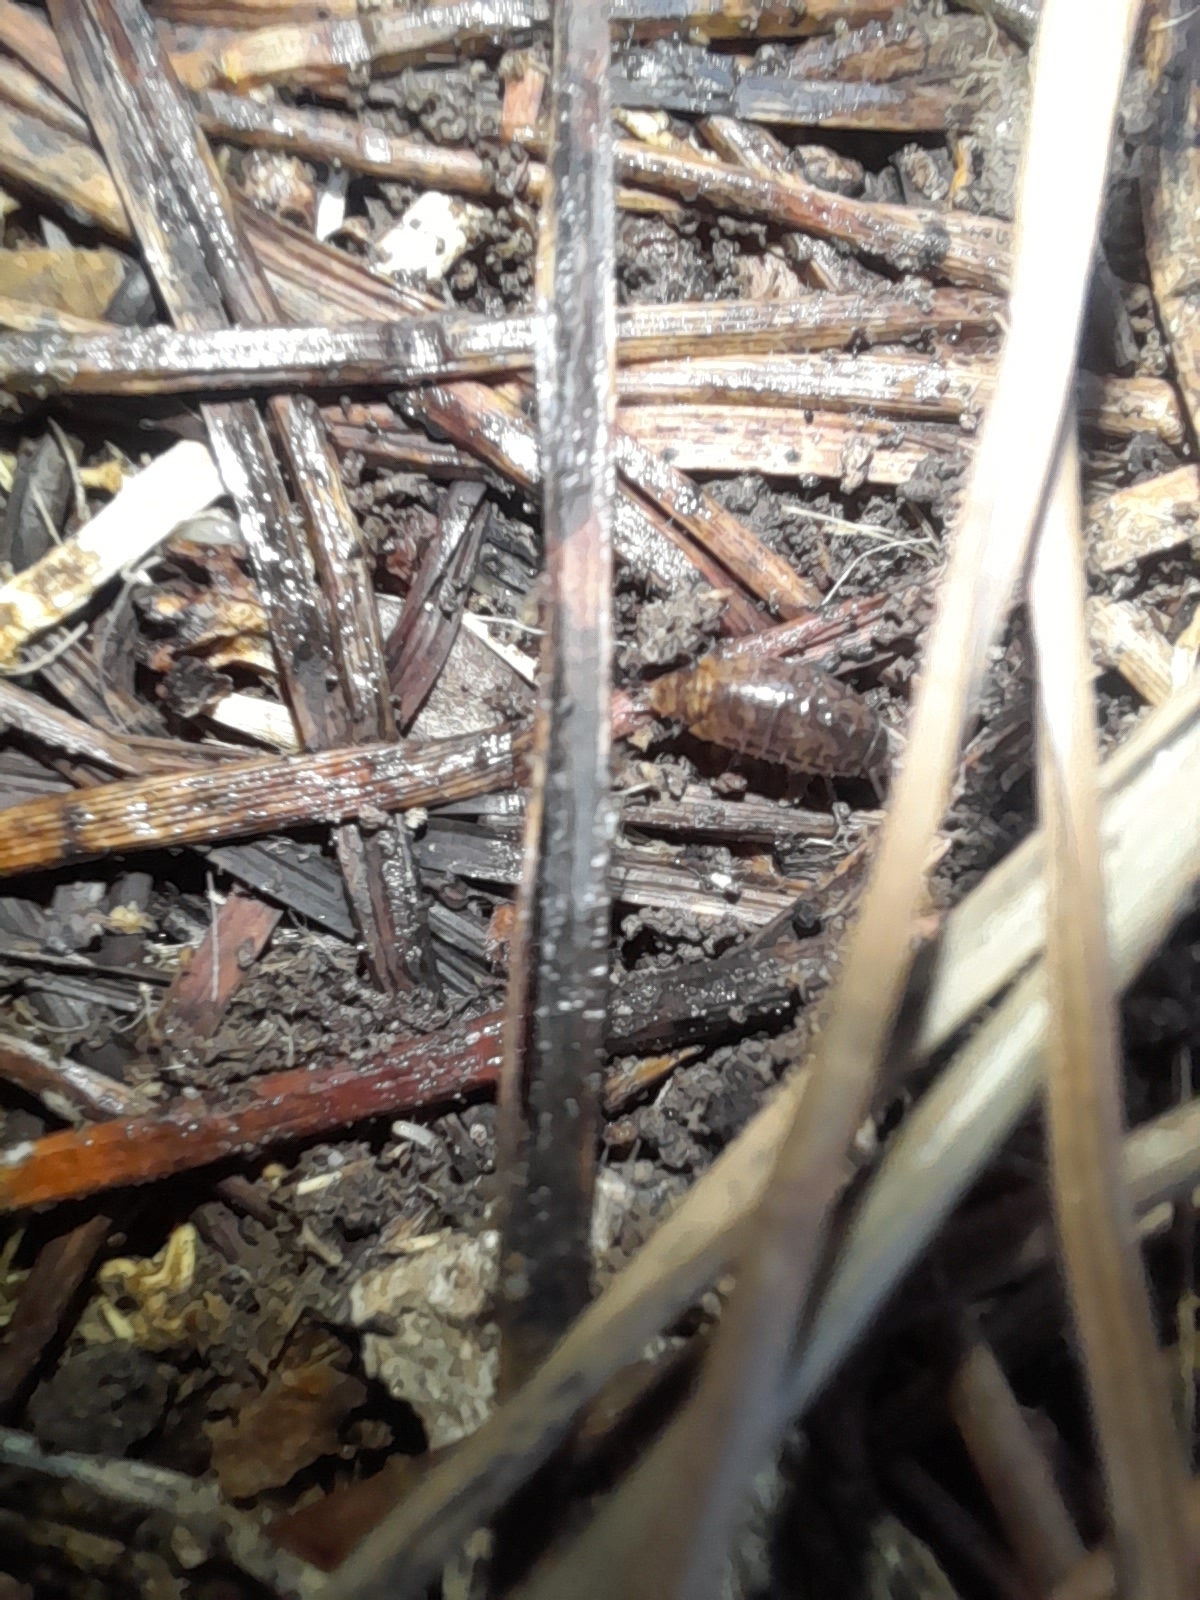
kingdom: Animalia
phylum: Arthropoda
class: Malacostraca
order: Isopoda
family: Philosciidae
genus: Chaetophiloscia
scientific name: Chaetophiloscia elongata
